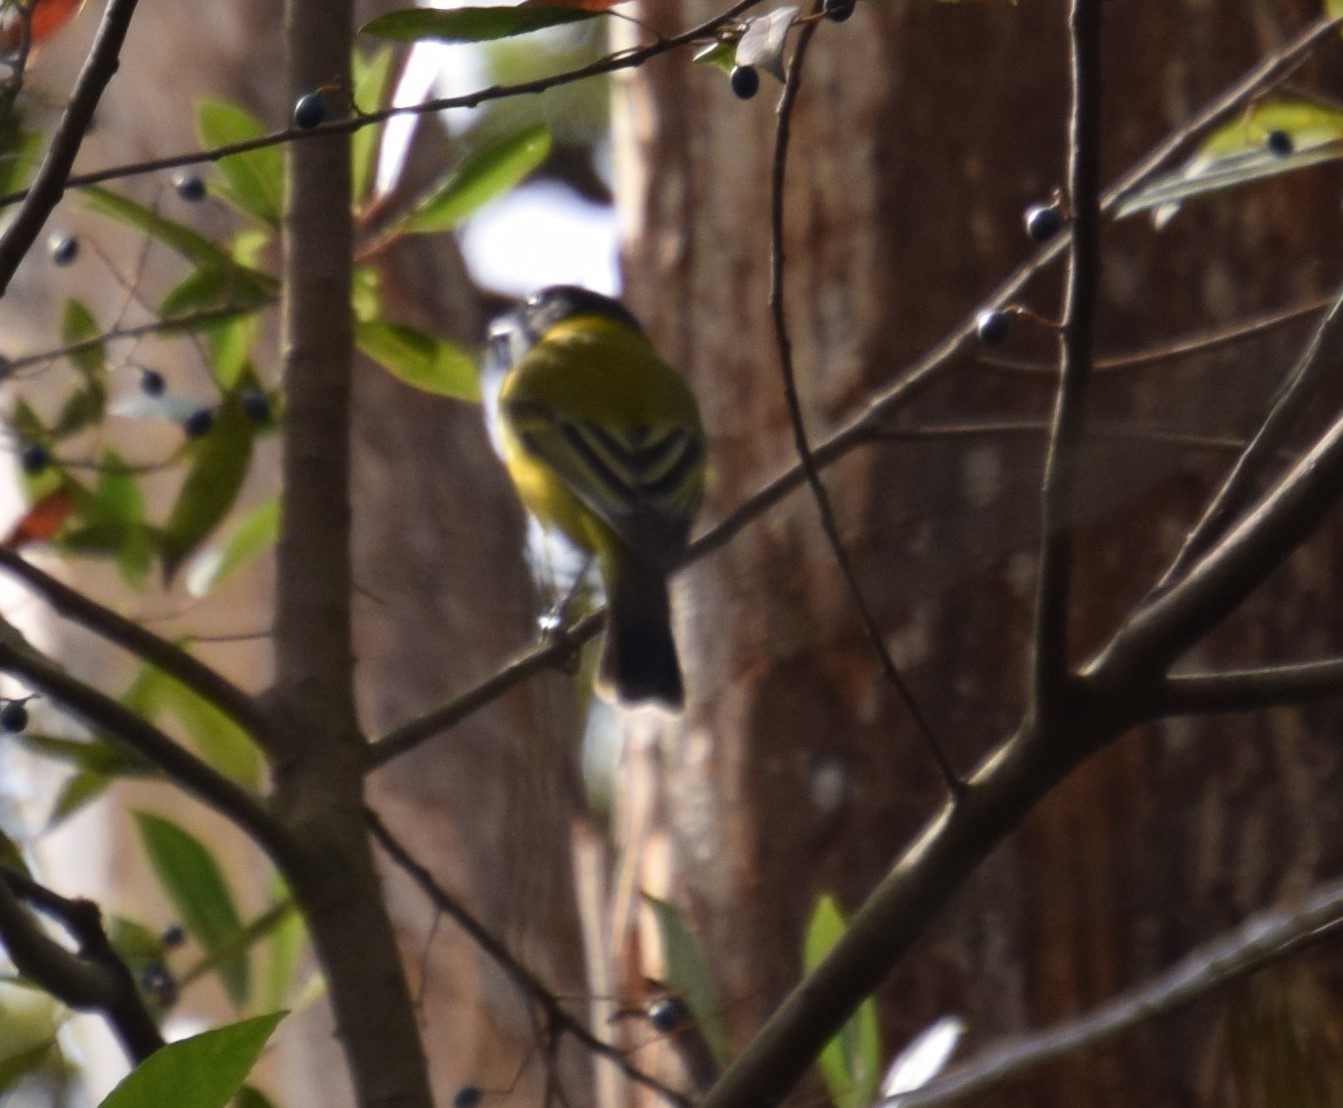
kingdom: Animalia
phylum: Chordata
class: Aves
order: Passeriformes
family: Pachycephalidae
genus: Pachycephala
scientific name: Pachycephala pectoralis
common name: Australian golden whistler
